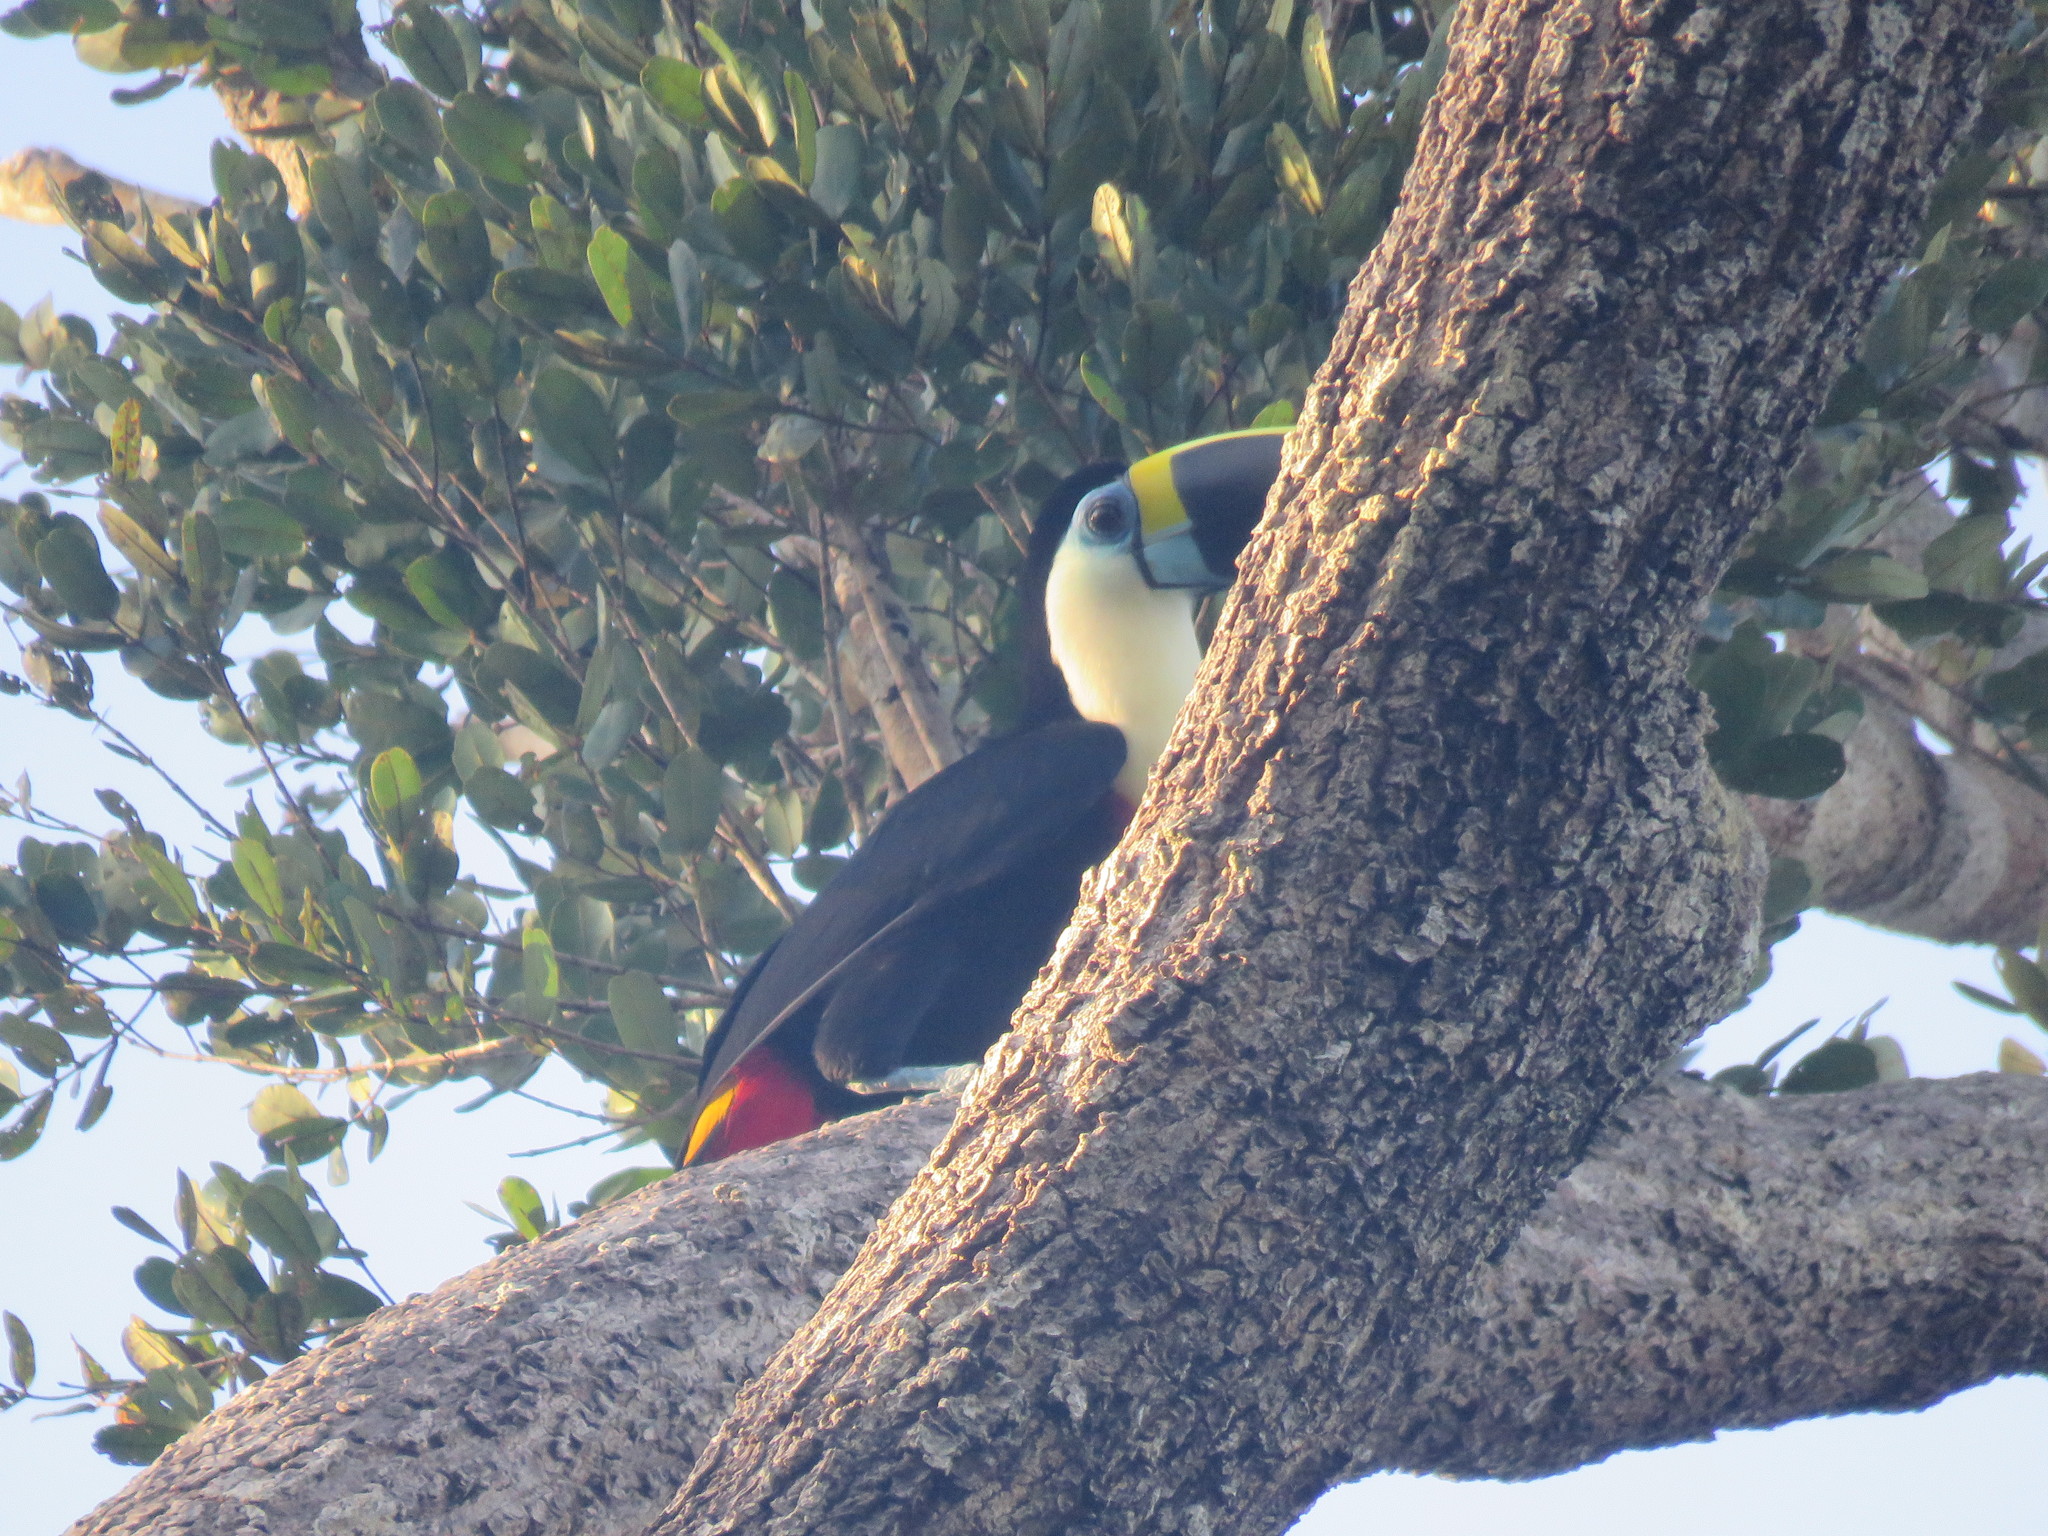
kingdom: Animalia
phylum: Chordata
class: Aves
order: Piciformes
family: Ramphastidae
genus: Ramphastos
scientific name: Ramphastos tucanus
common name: White-throated toucan
